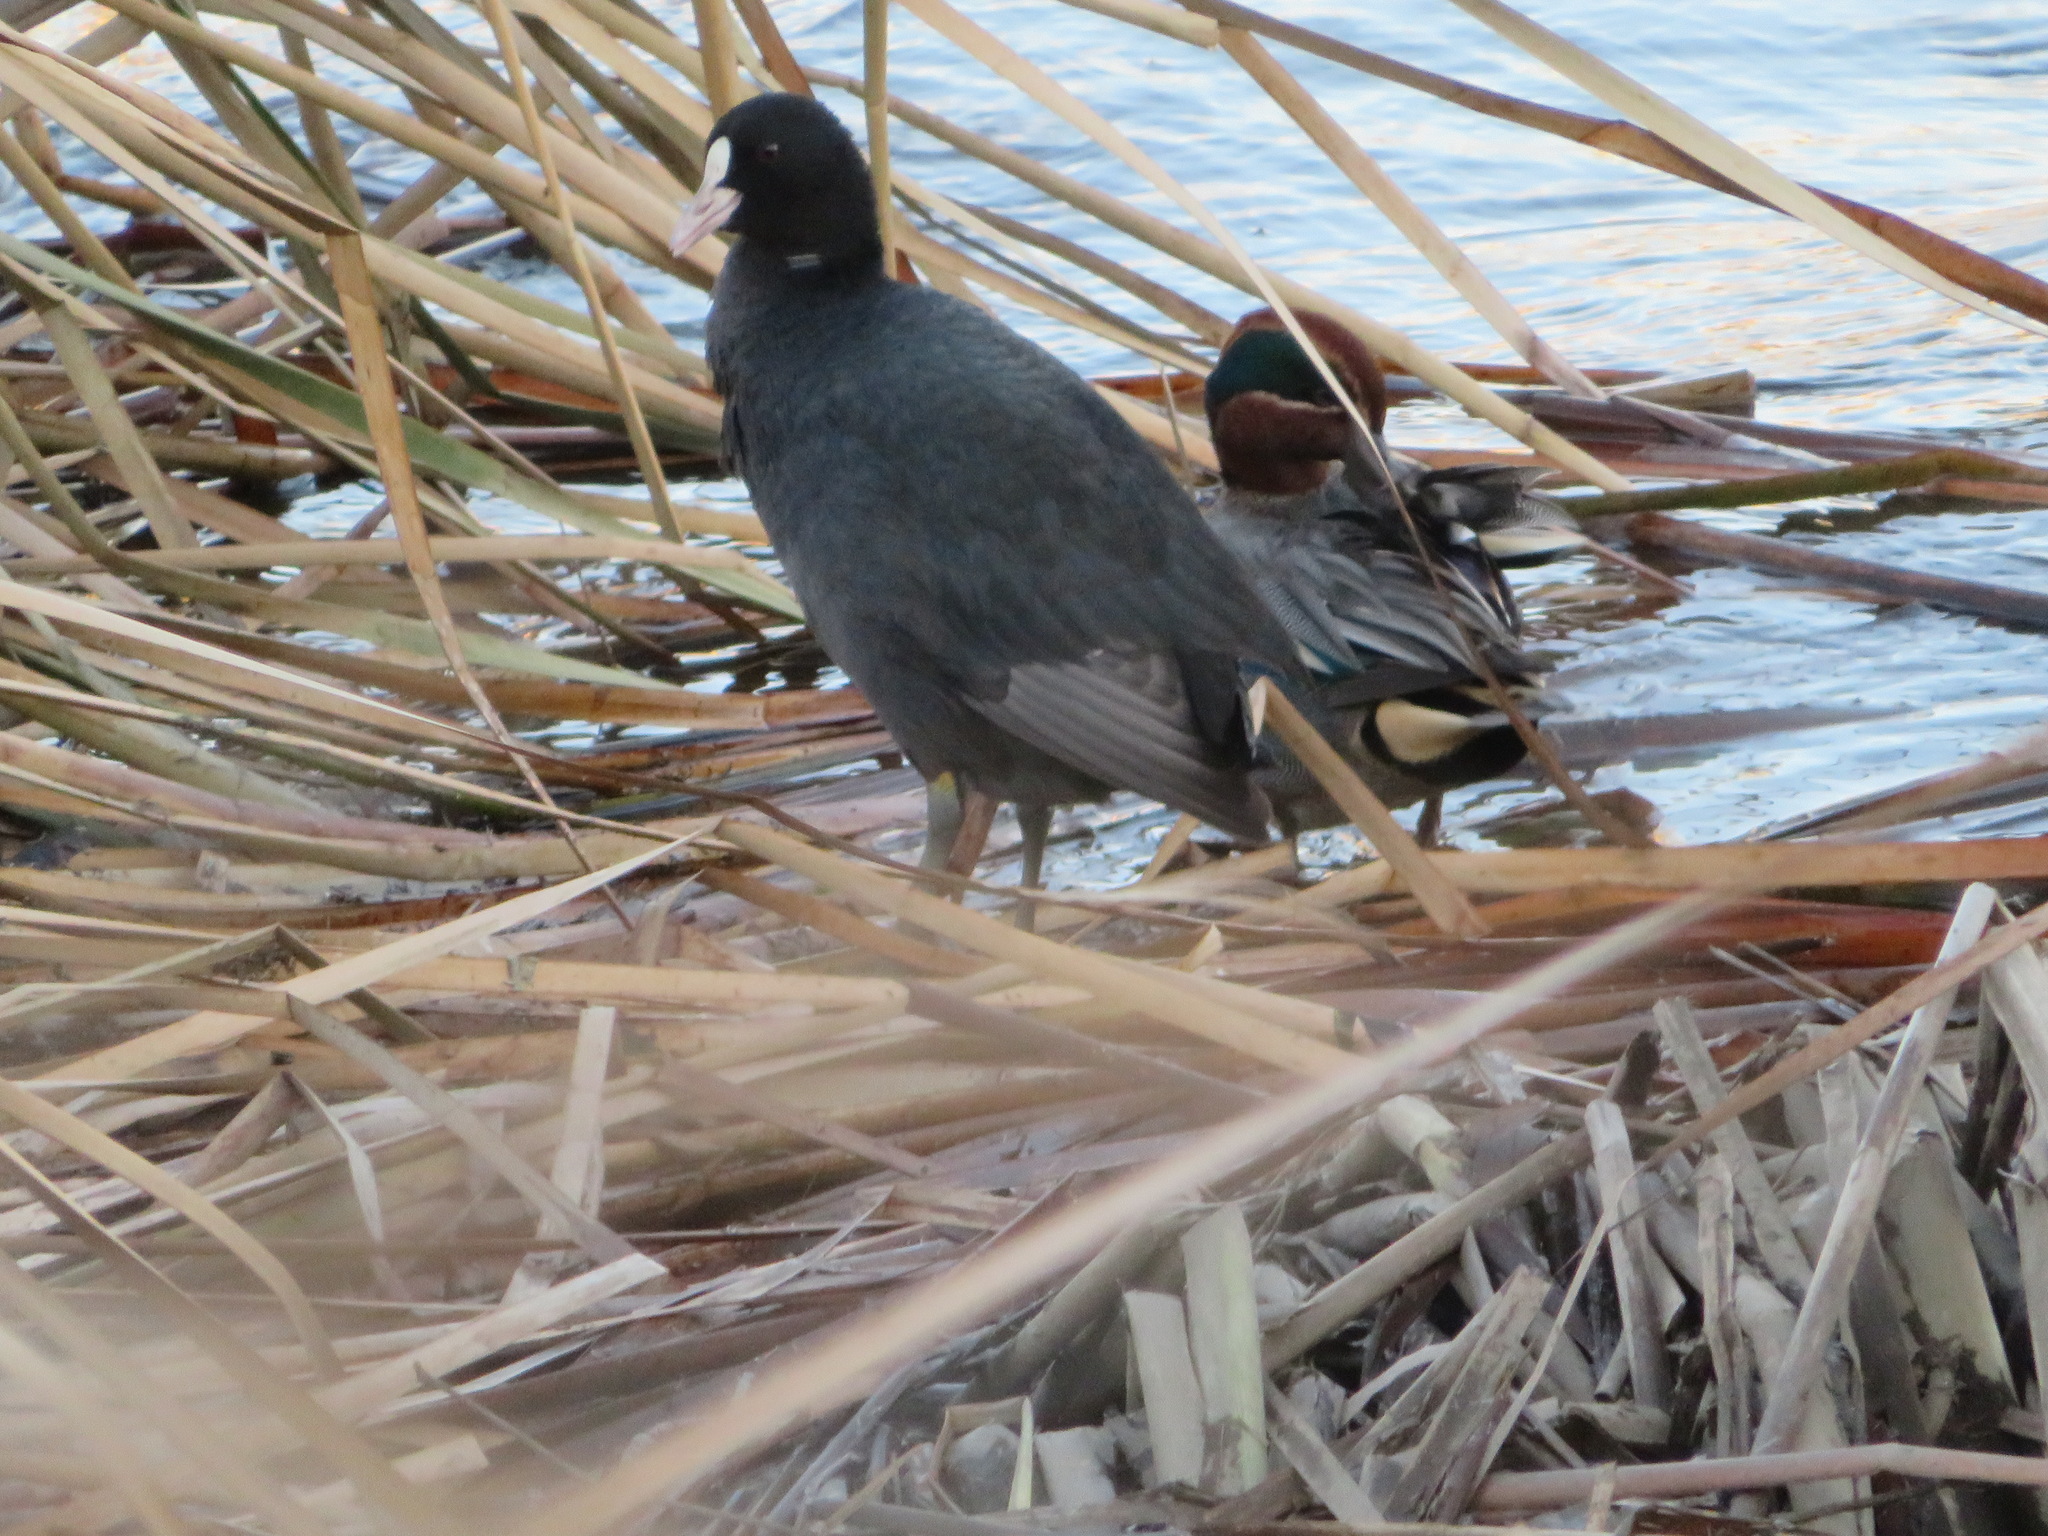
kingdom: Animalia
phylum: Chordata
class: Aves
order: Gruiformes
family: Rallidae
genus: Fulica
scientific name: Fulica atra
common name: Eurasian coot
